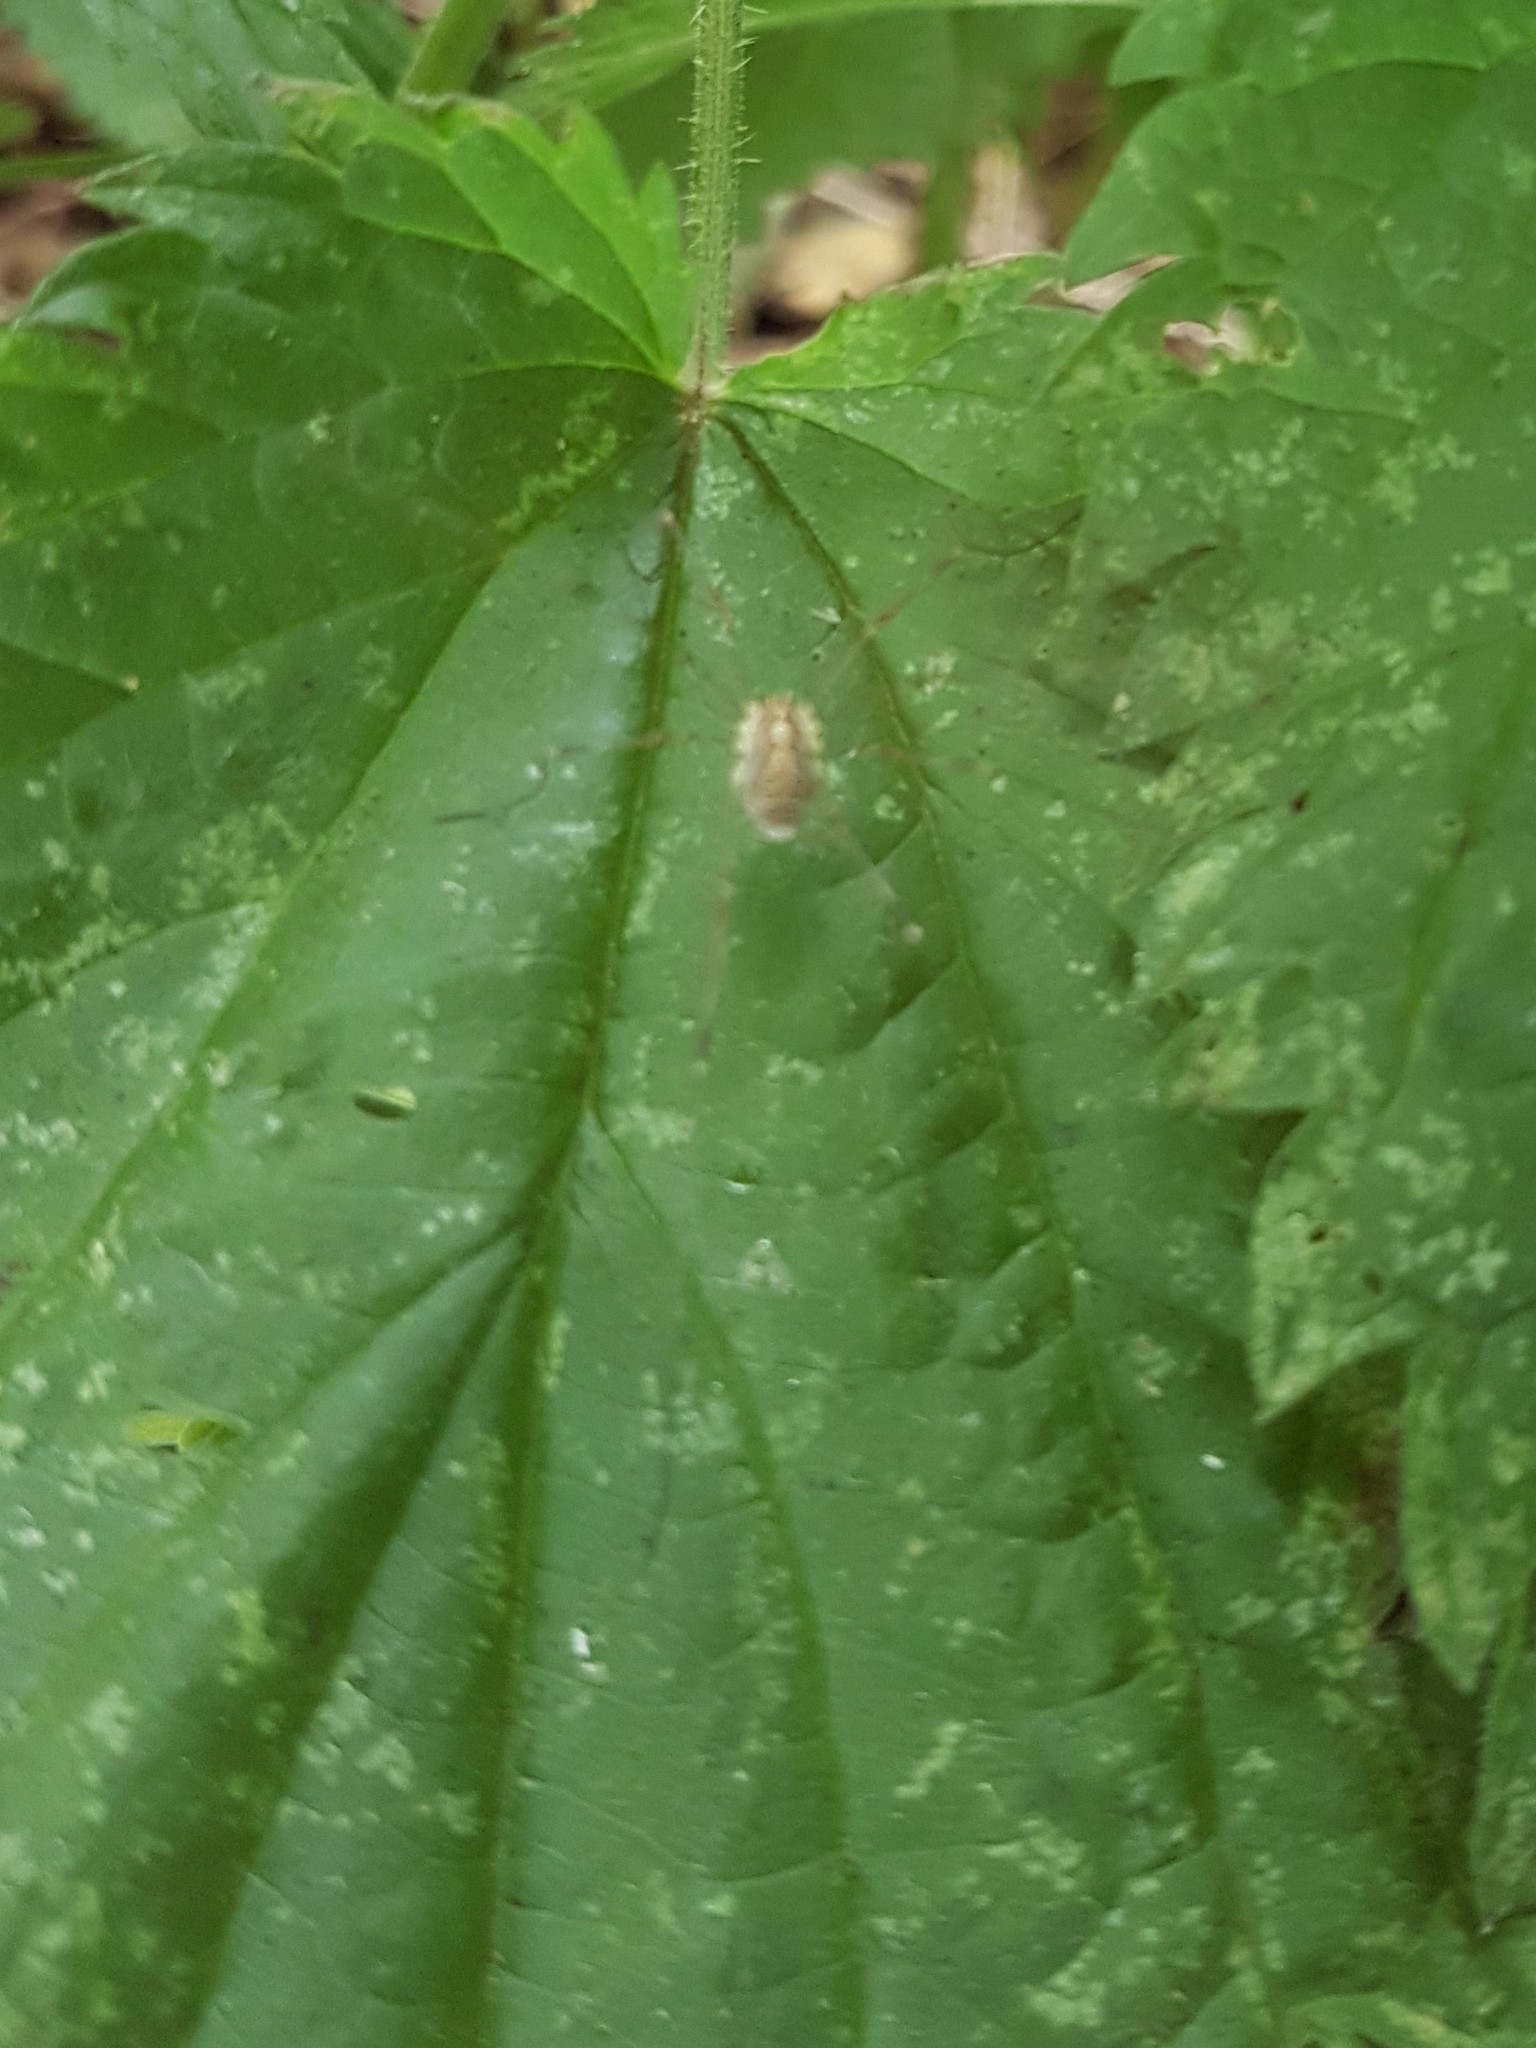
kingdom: Animalia
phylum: Arthropoda
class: Arachnida
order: Opiliones
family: Phalangiidae
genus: Opilio
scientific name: Opilio canestrinii
